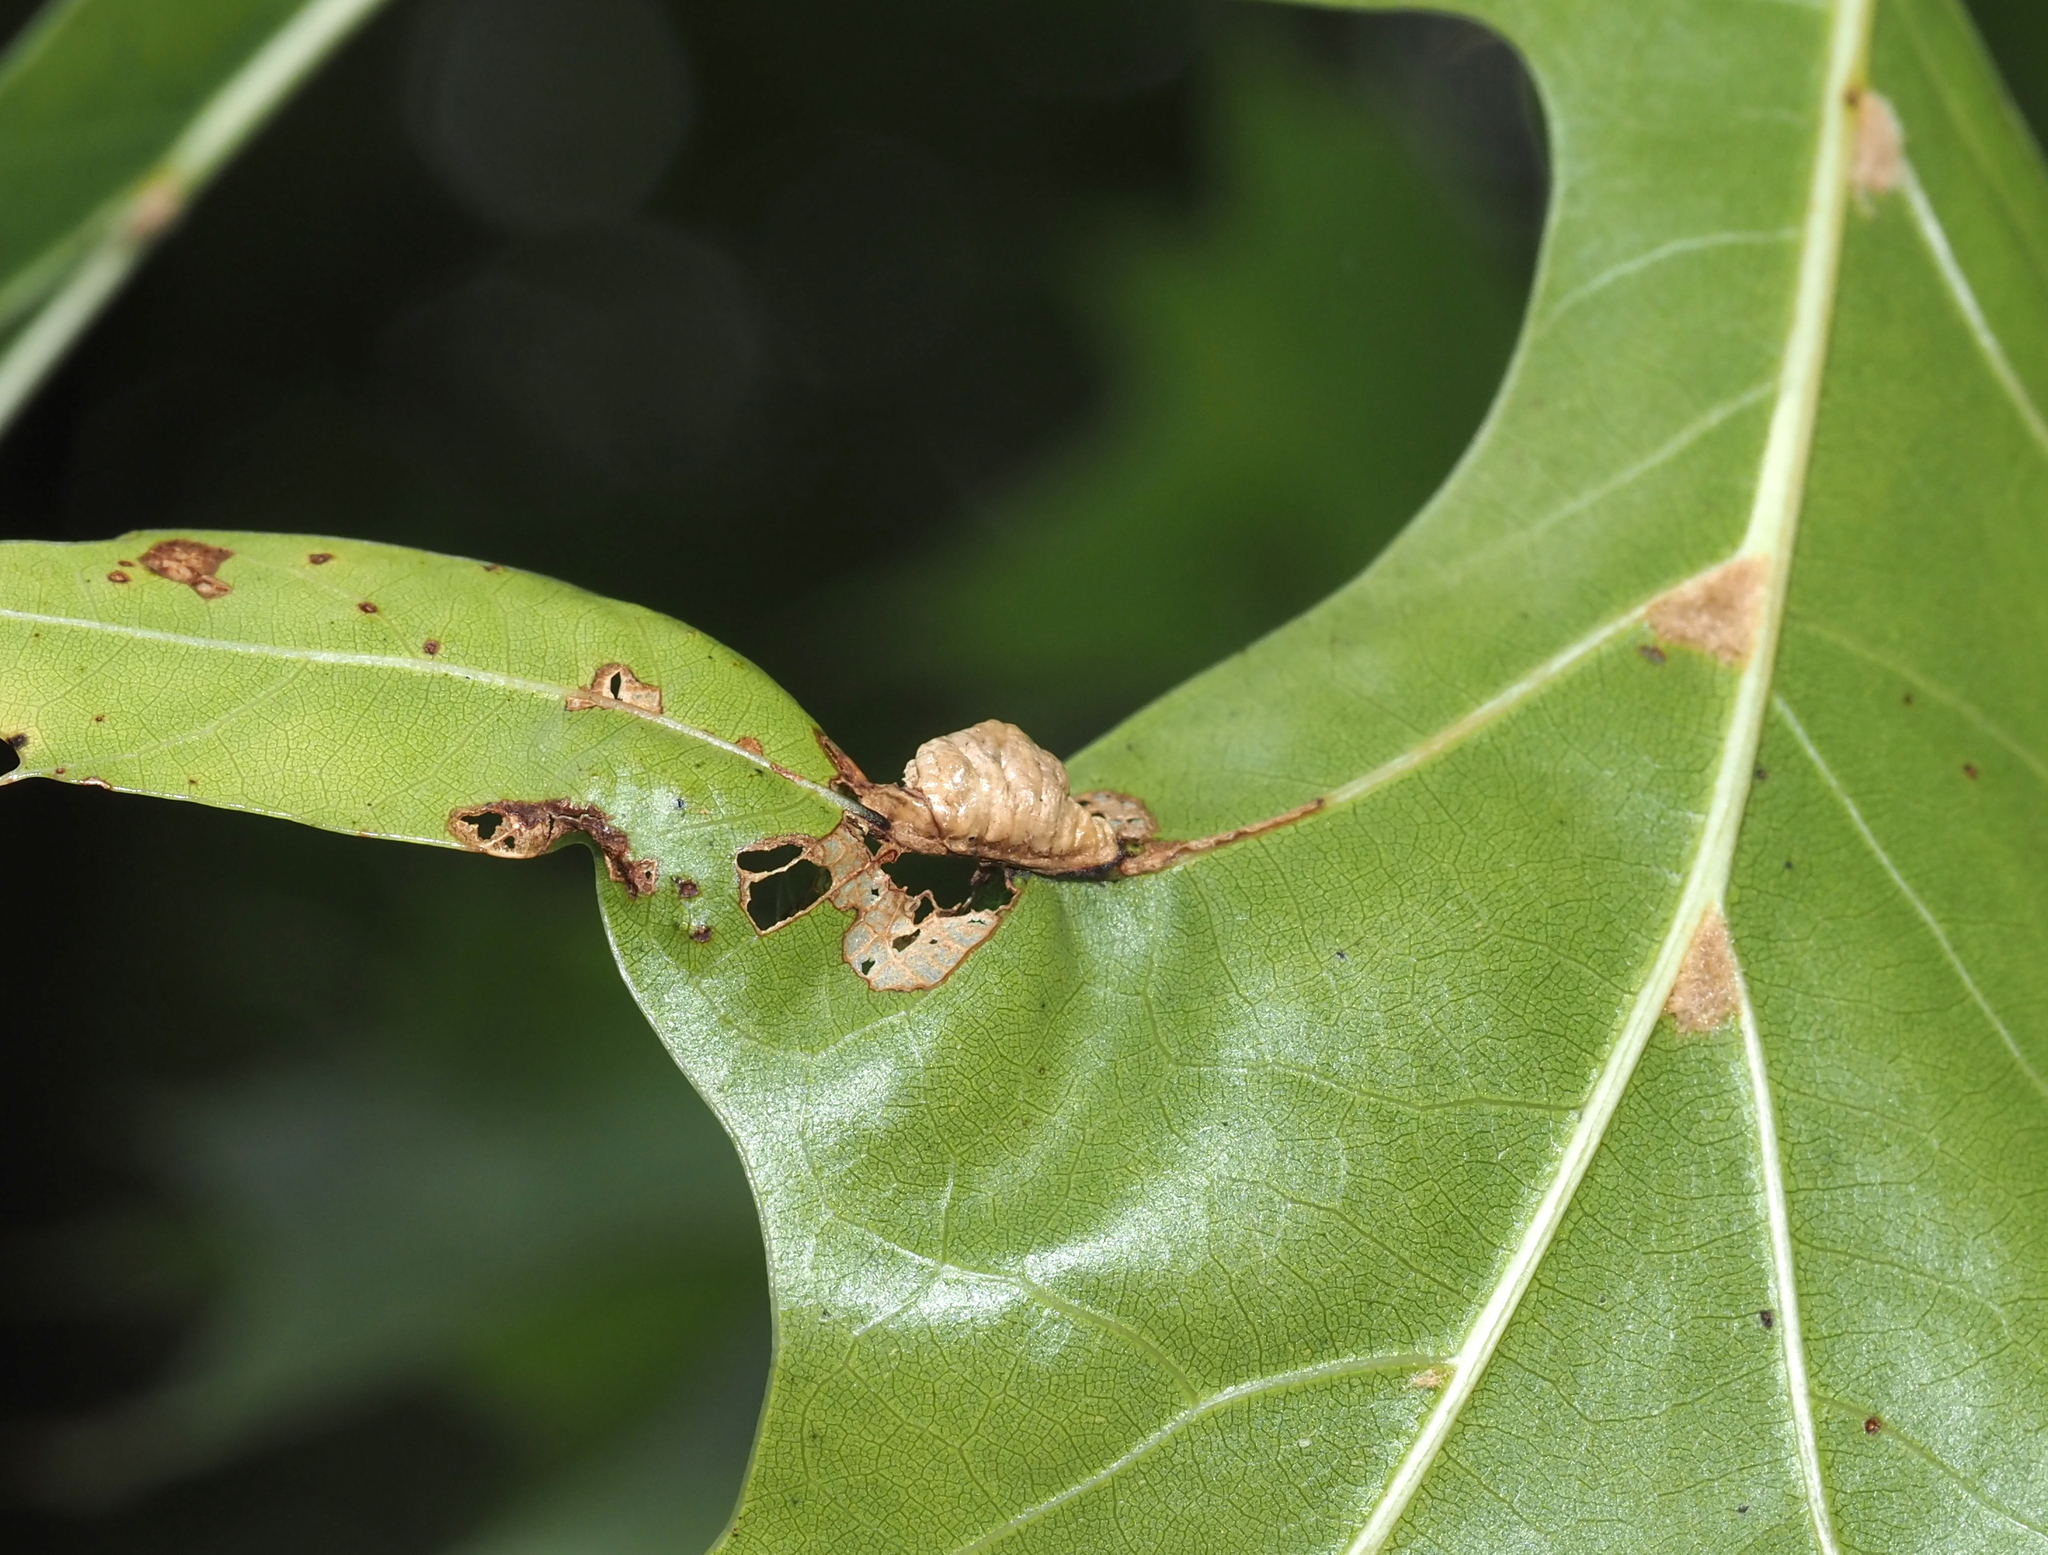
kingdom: Animalia
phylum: Arthropoda
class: Insecta
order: Diptera
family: Cecidomyiidae
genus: Macrodiplosis
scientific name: Macrodiplosis majalis
